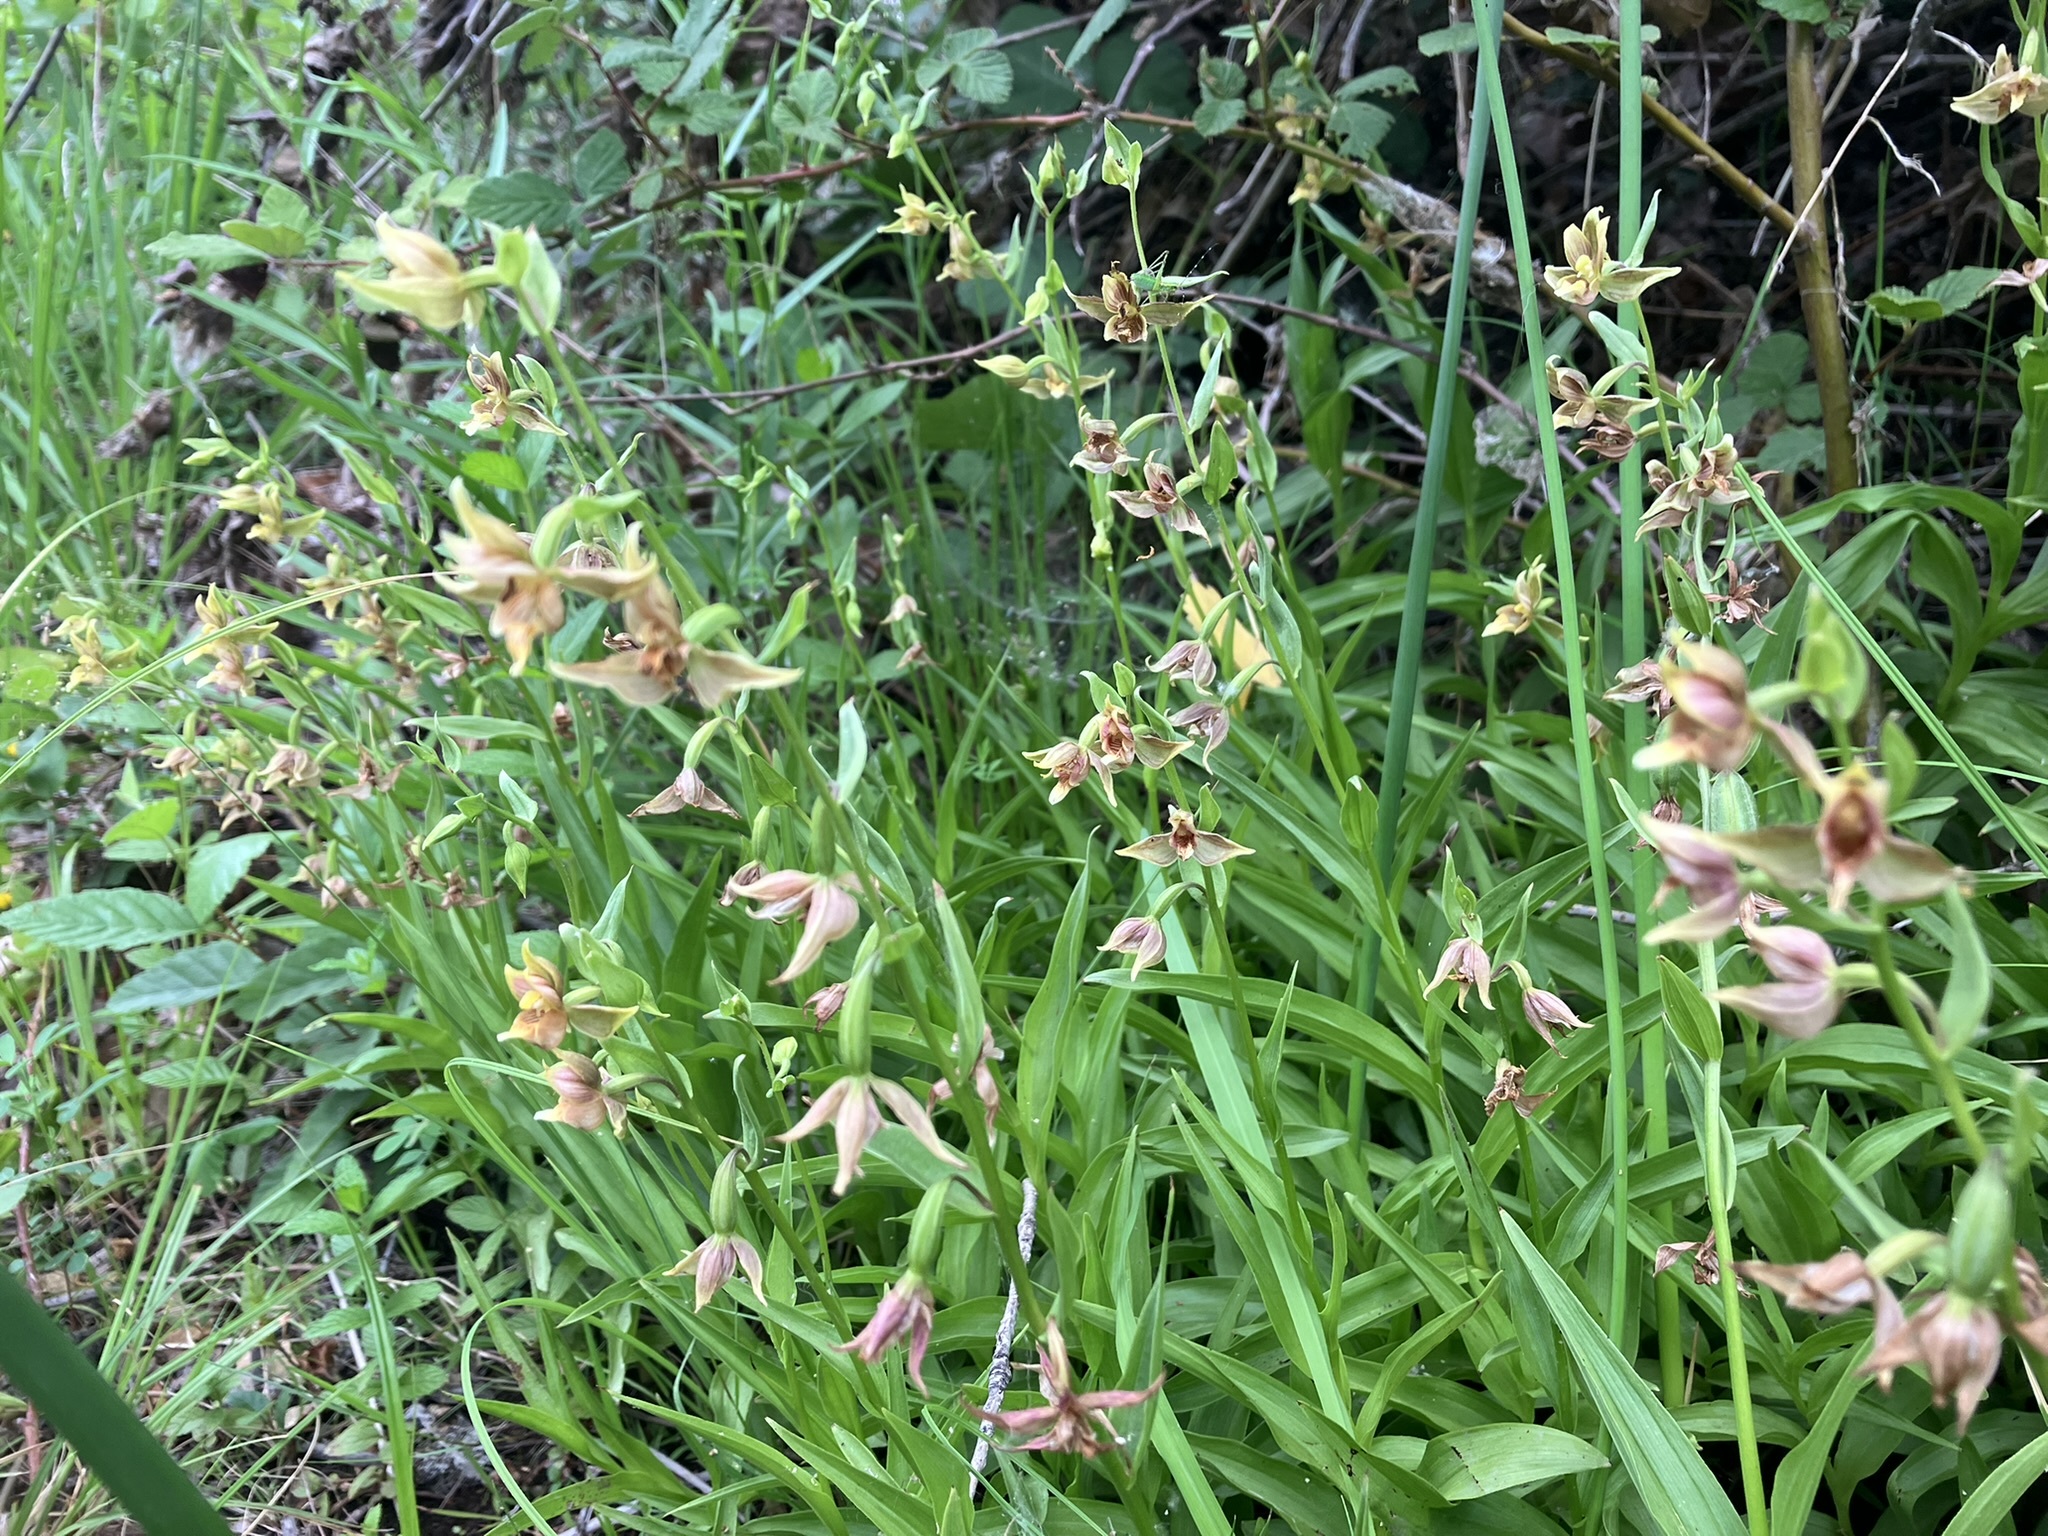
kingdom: Plantae
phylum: Tracheophyta
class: Liliopsida
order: Asparagales
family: Orchidaceae
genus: Epipactis
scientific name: Epipactis gigantea
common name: Chatterbox
